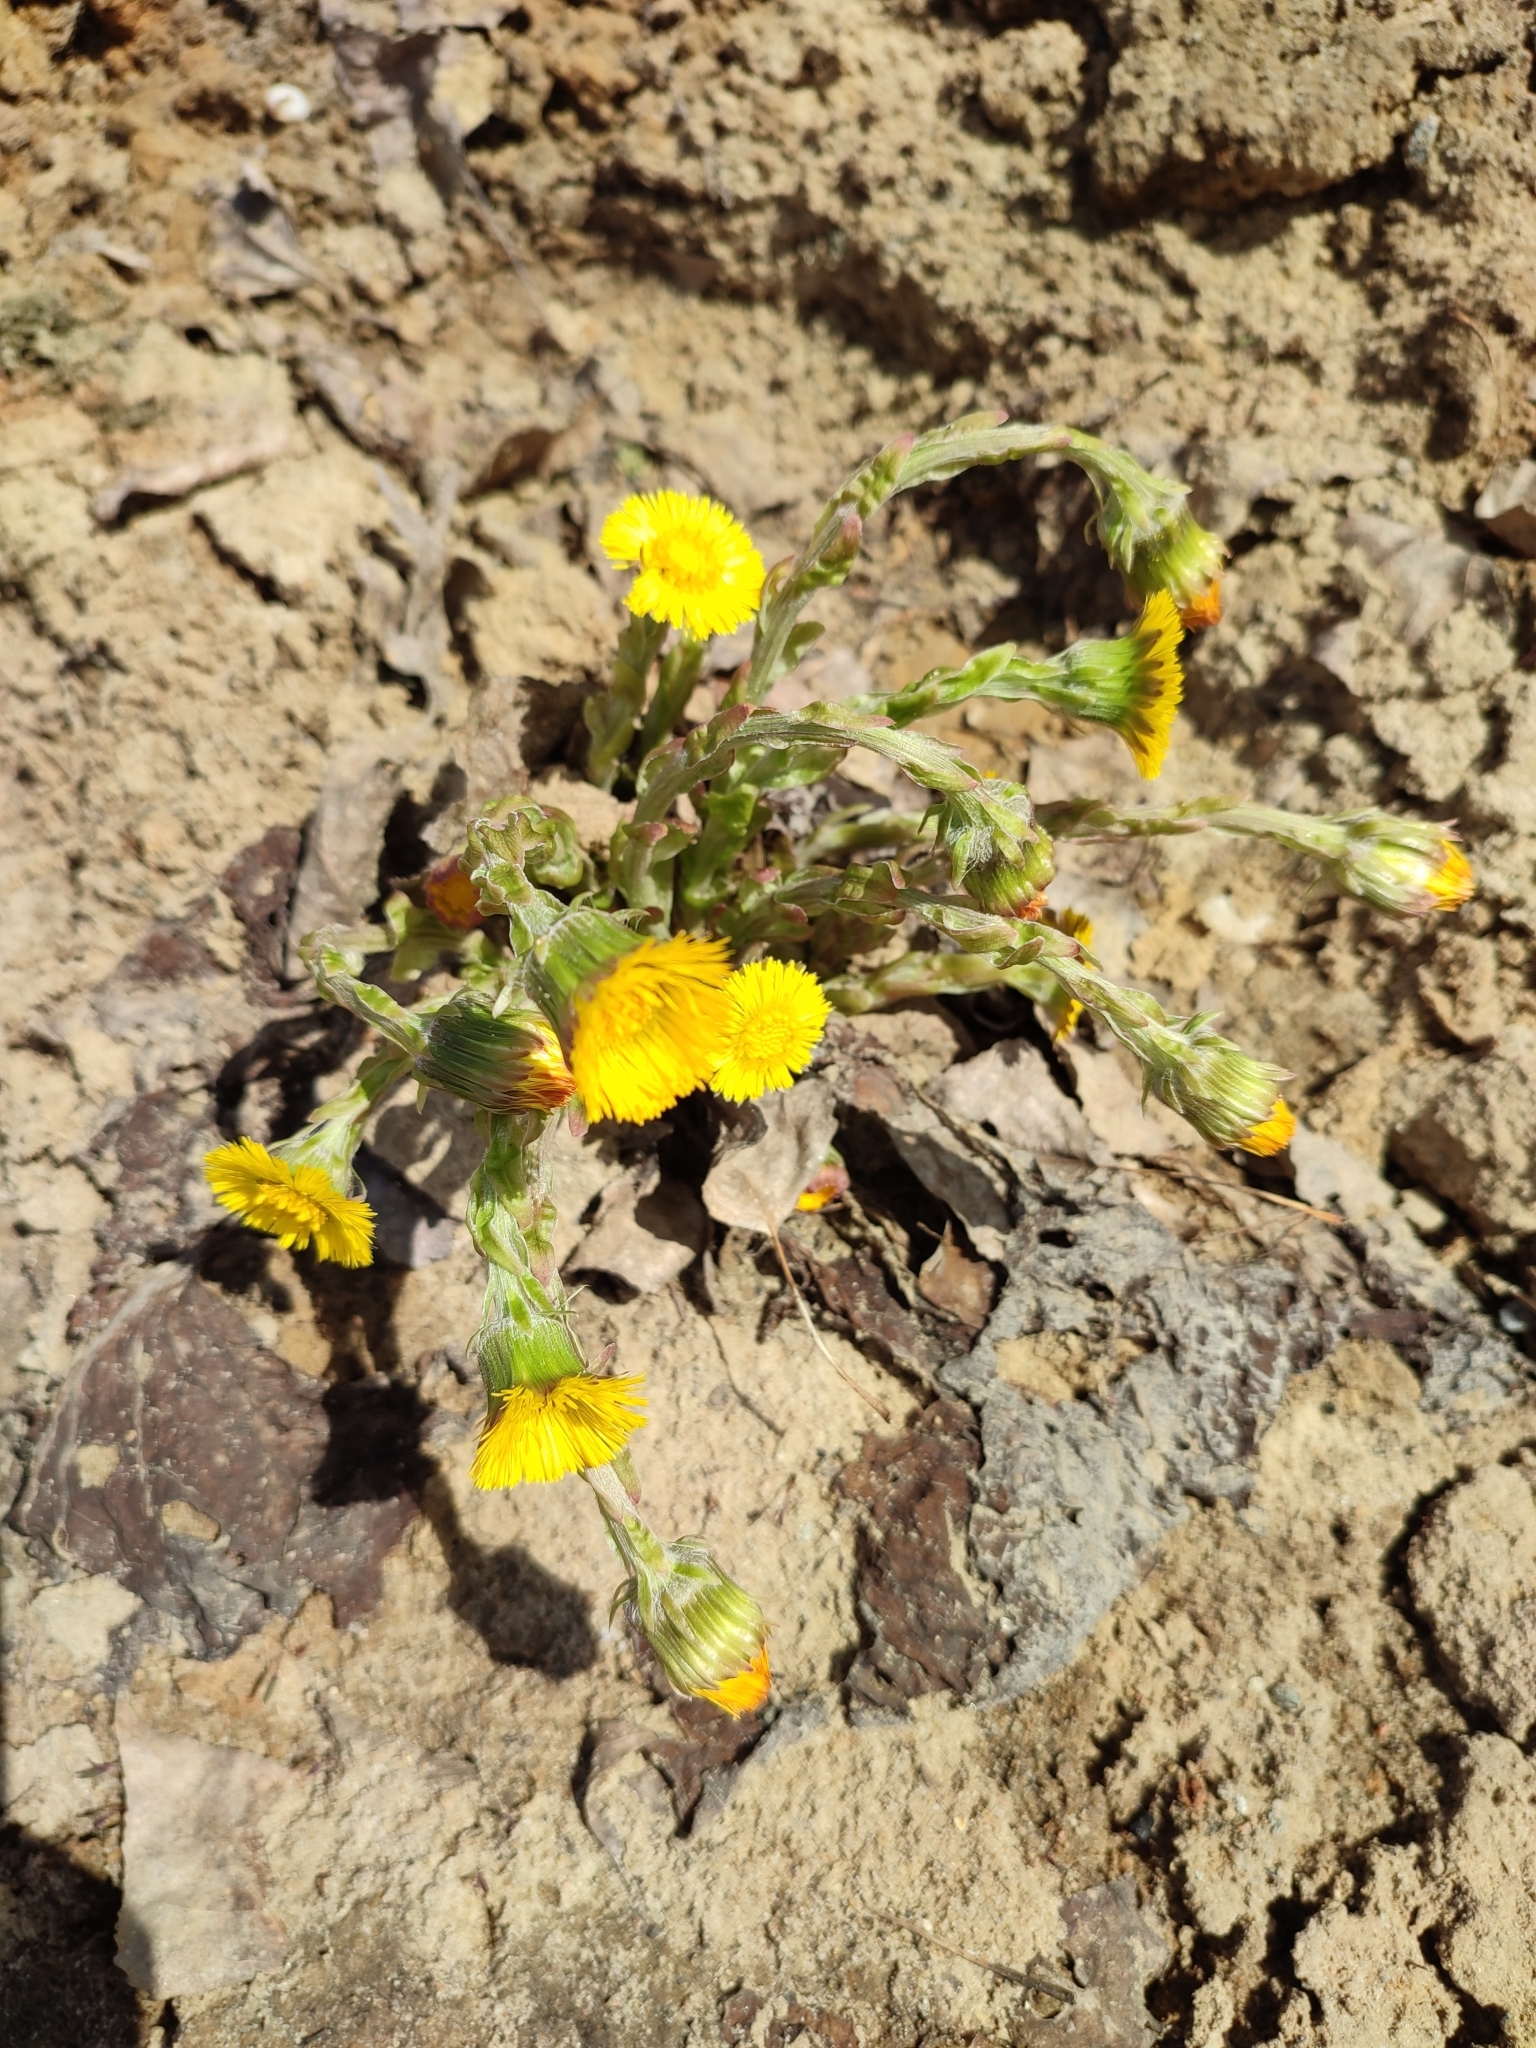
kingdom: Plantae
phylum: Tracheophyta
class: Magnoliopsida
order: Asterales
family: Asteraceae
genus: Tussilago
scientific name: Tussilago farfara
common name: Coltsfoot
